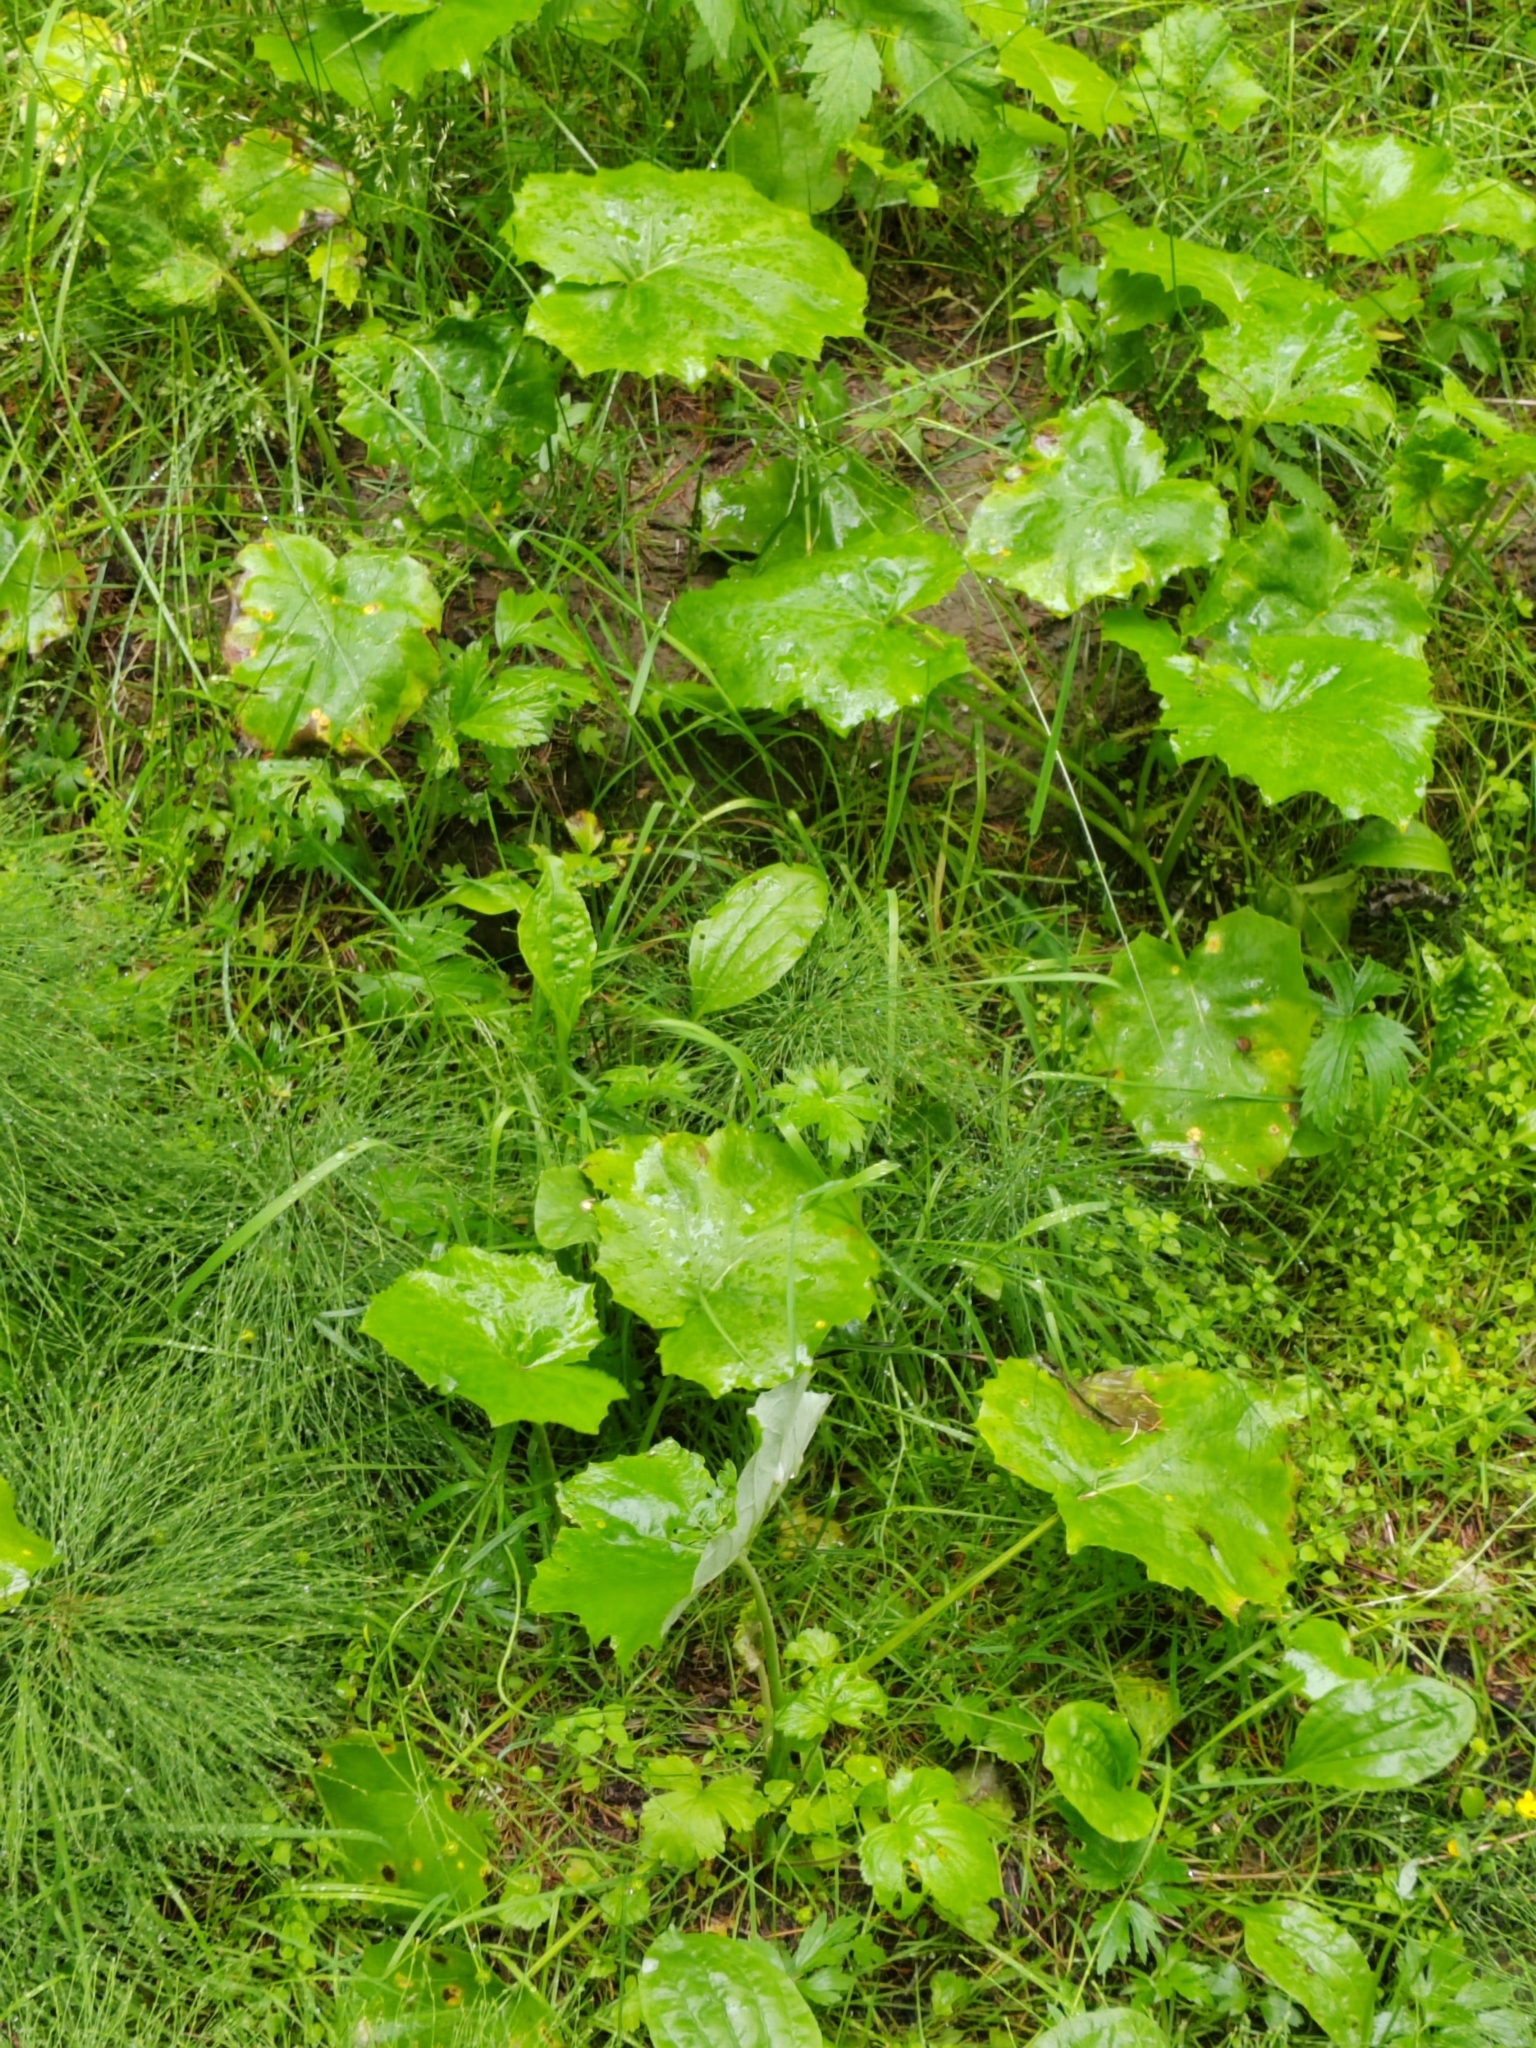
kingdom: Plantae
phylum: Tracheophyta
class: Magnoliopsida
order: Asterales
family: Asteraceae
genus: Tussilago
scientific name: Tussilago farfara
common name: Coltsfoot
